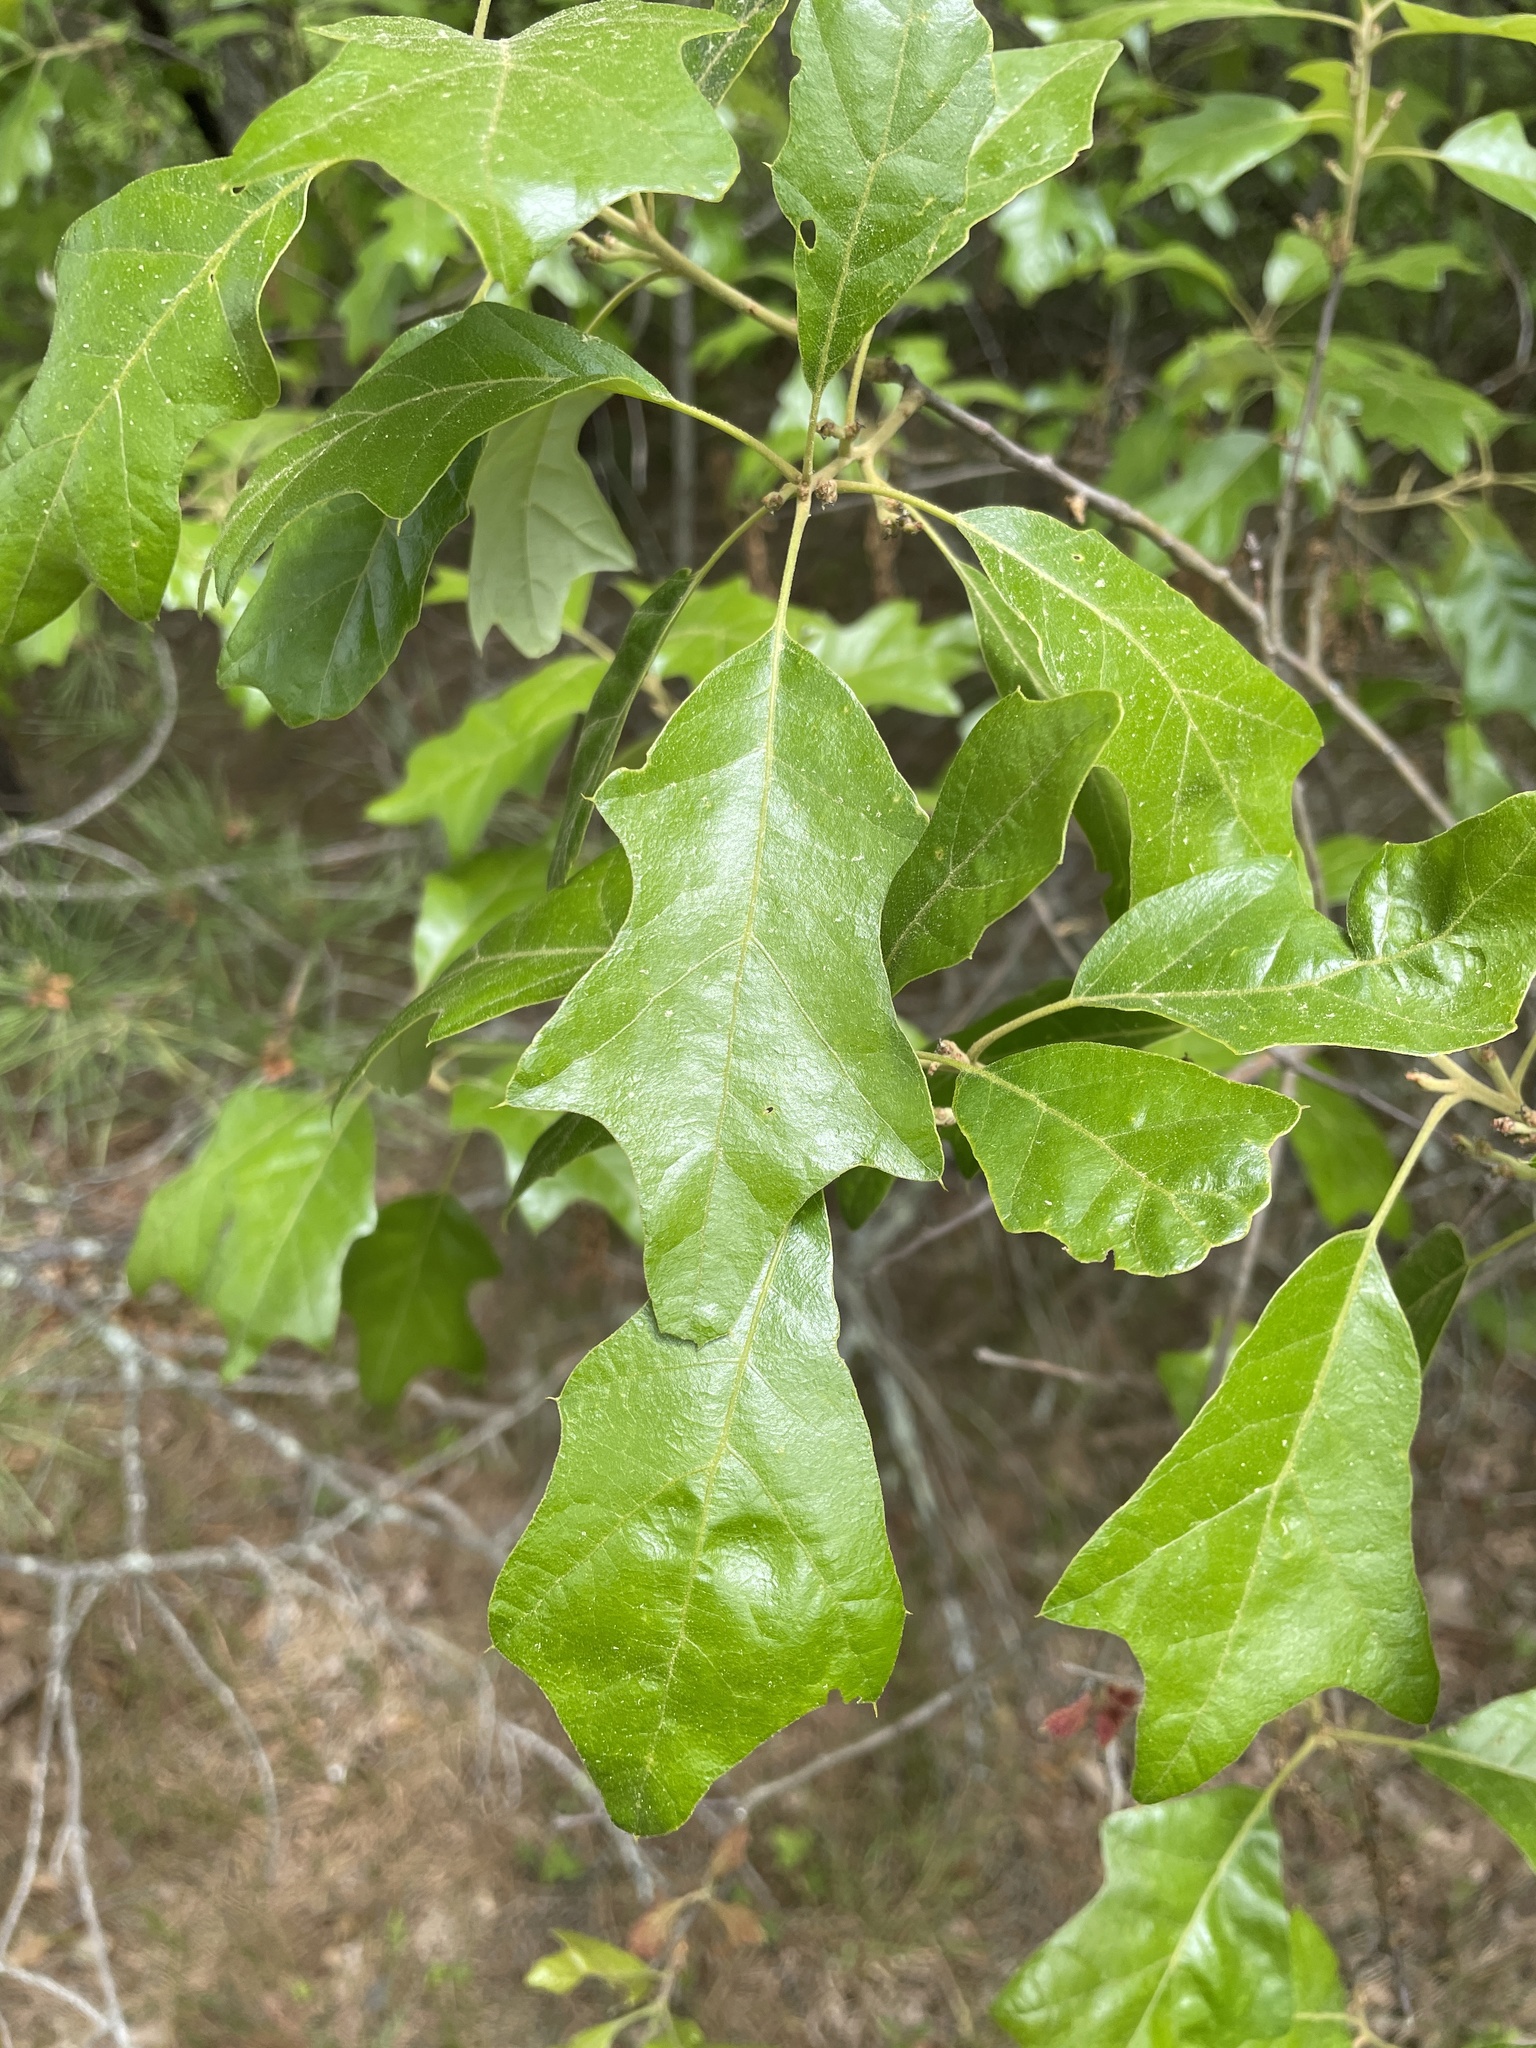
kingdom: Plantae
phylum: Tracheophyta
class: Magnoliopsida
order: Fagales
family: Fagaceae
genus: Quercus
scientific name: Quercus ilicifolia
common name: Bear oak
